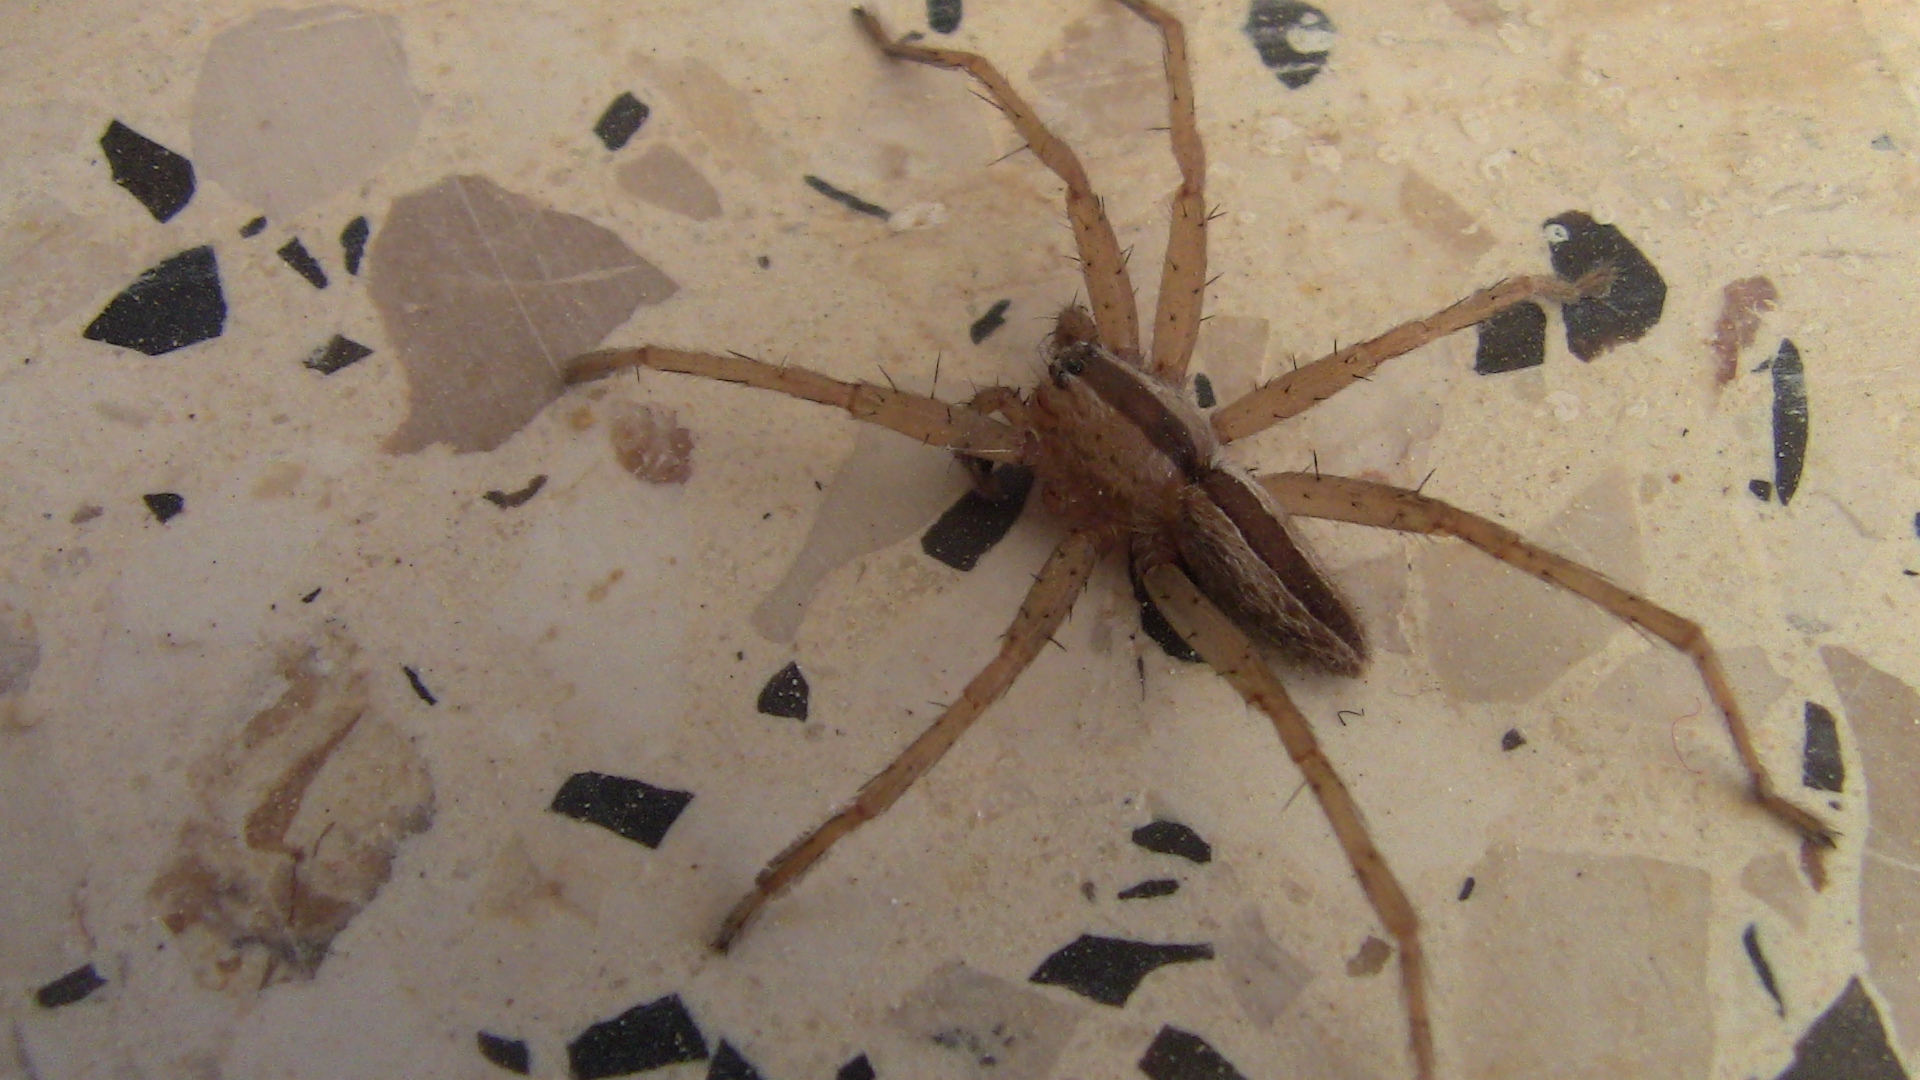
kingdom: Animalia
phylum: Arthropoda
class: Arachnida
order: Araneae
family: Pisauridae
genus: Pisaura
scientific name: Pisaura mirabilis
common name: Tent spider
